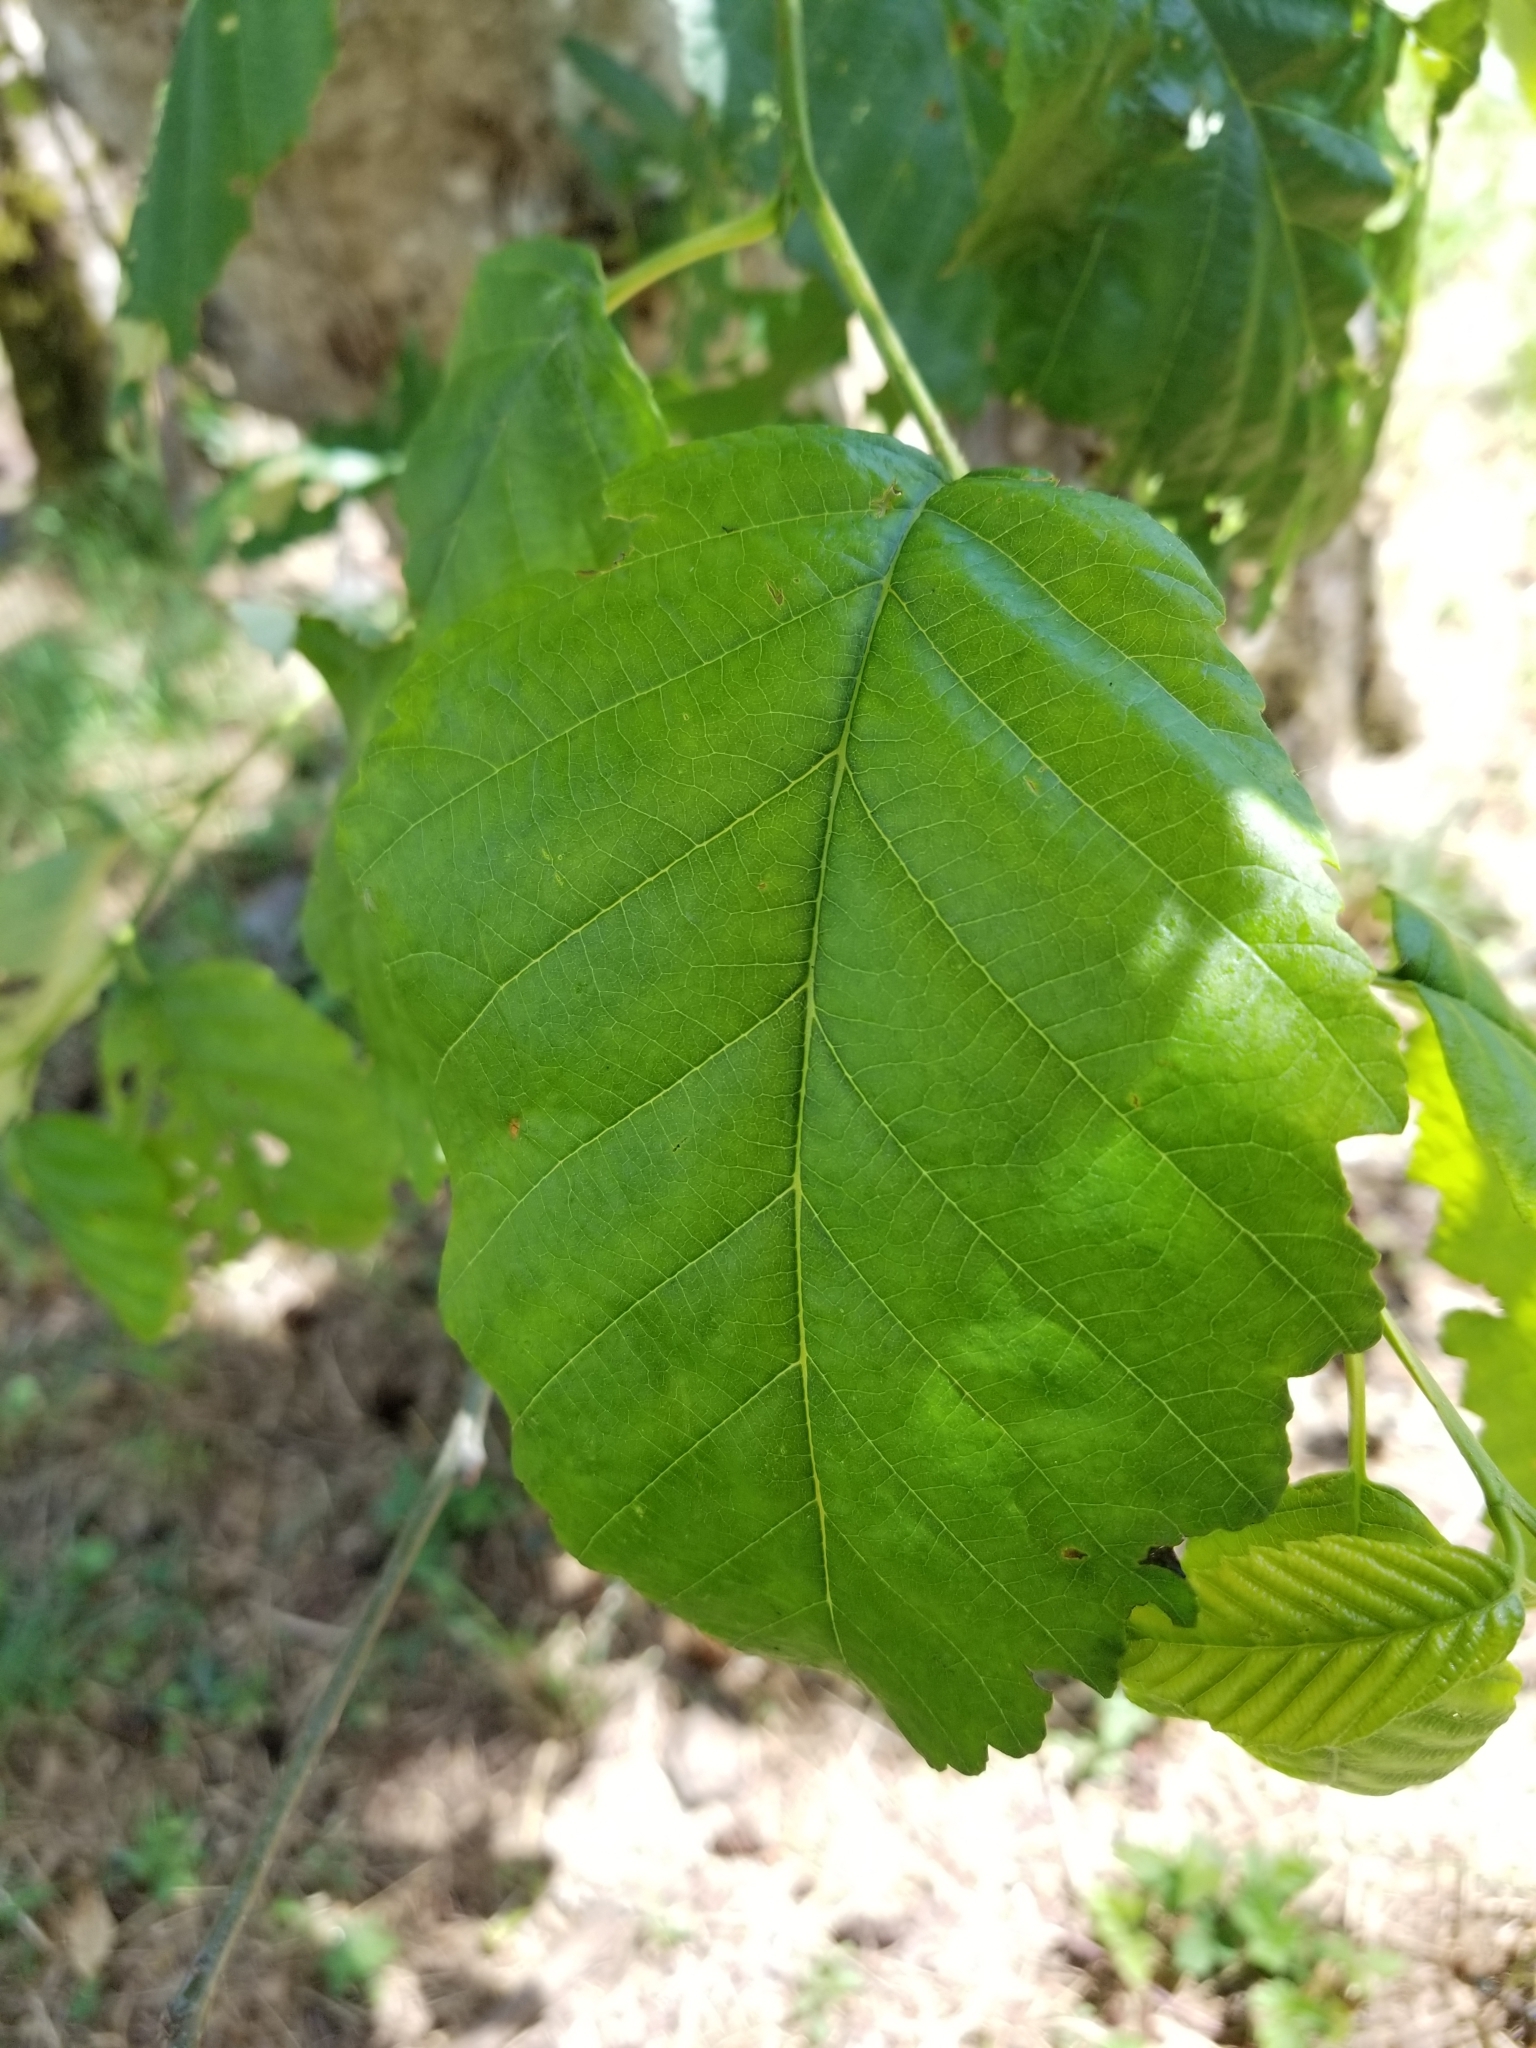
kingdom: Plantae
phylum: Tracheophyta
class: Magnoliopsida
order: Fagales
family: Betulaceae
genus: Alnus
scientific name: Alnus rubra
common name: Red alder
